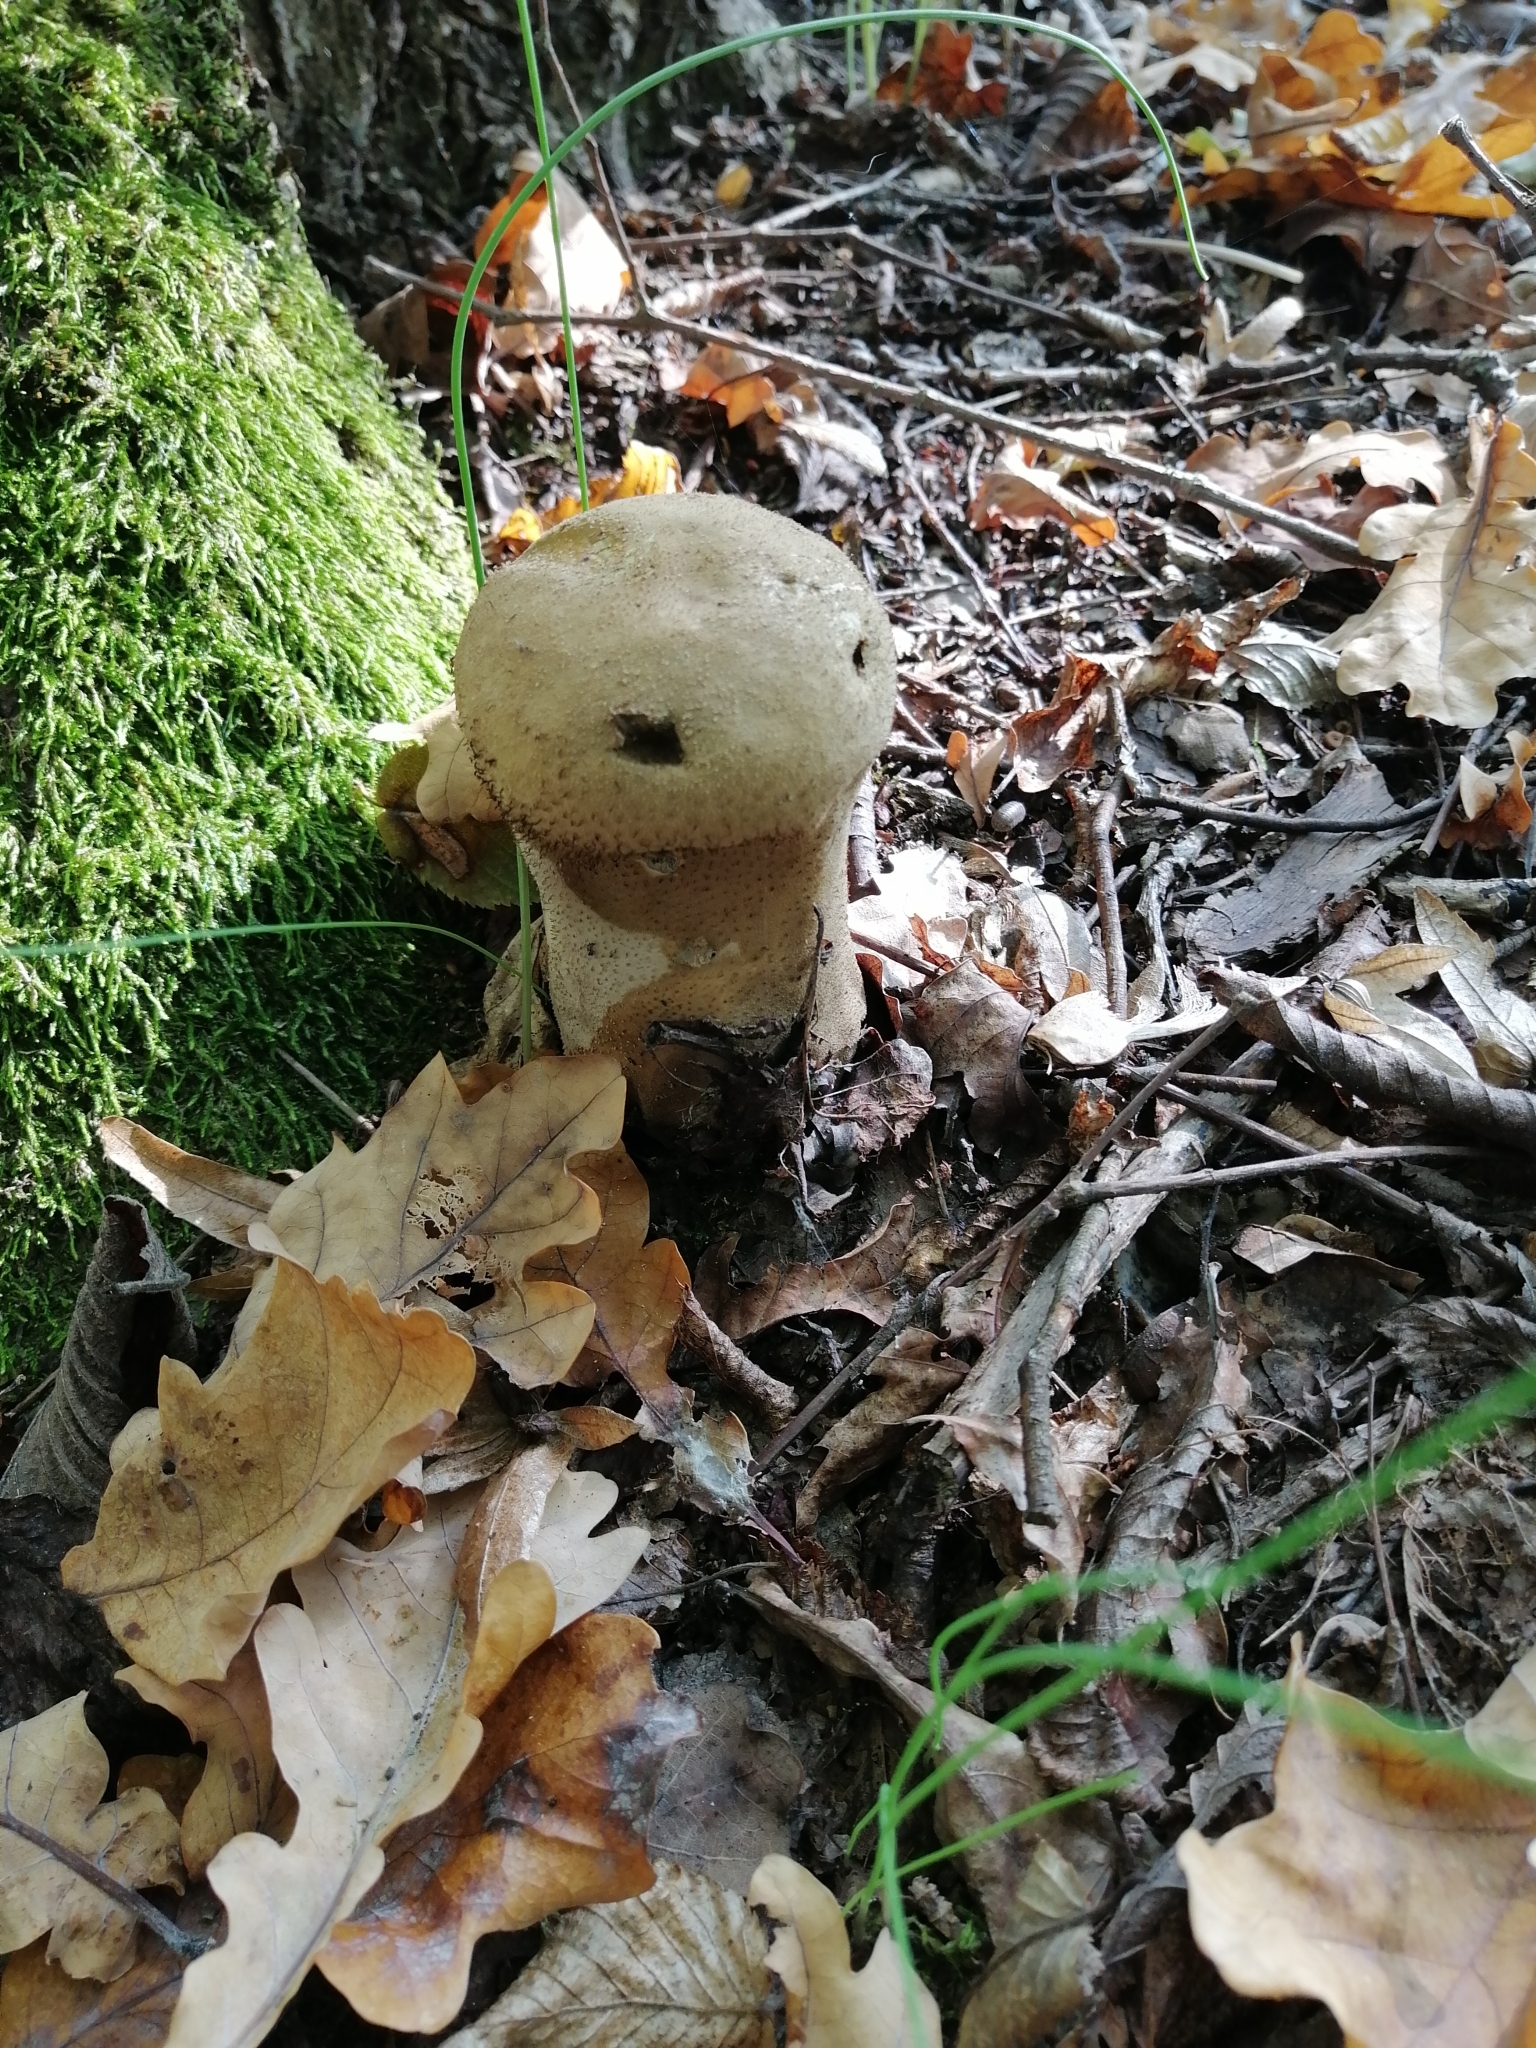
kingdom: Fungi
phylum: Basidiomycota
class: Agaricomycetes
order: Agaricales
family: Lycoperdaceae
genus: Lycoperdon
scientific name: Lycoperdon excipuliforme
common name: Pestle puffball
